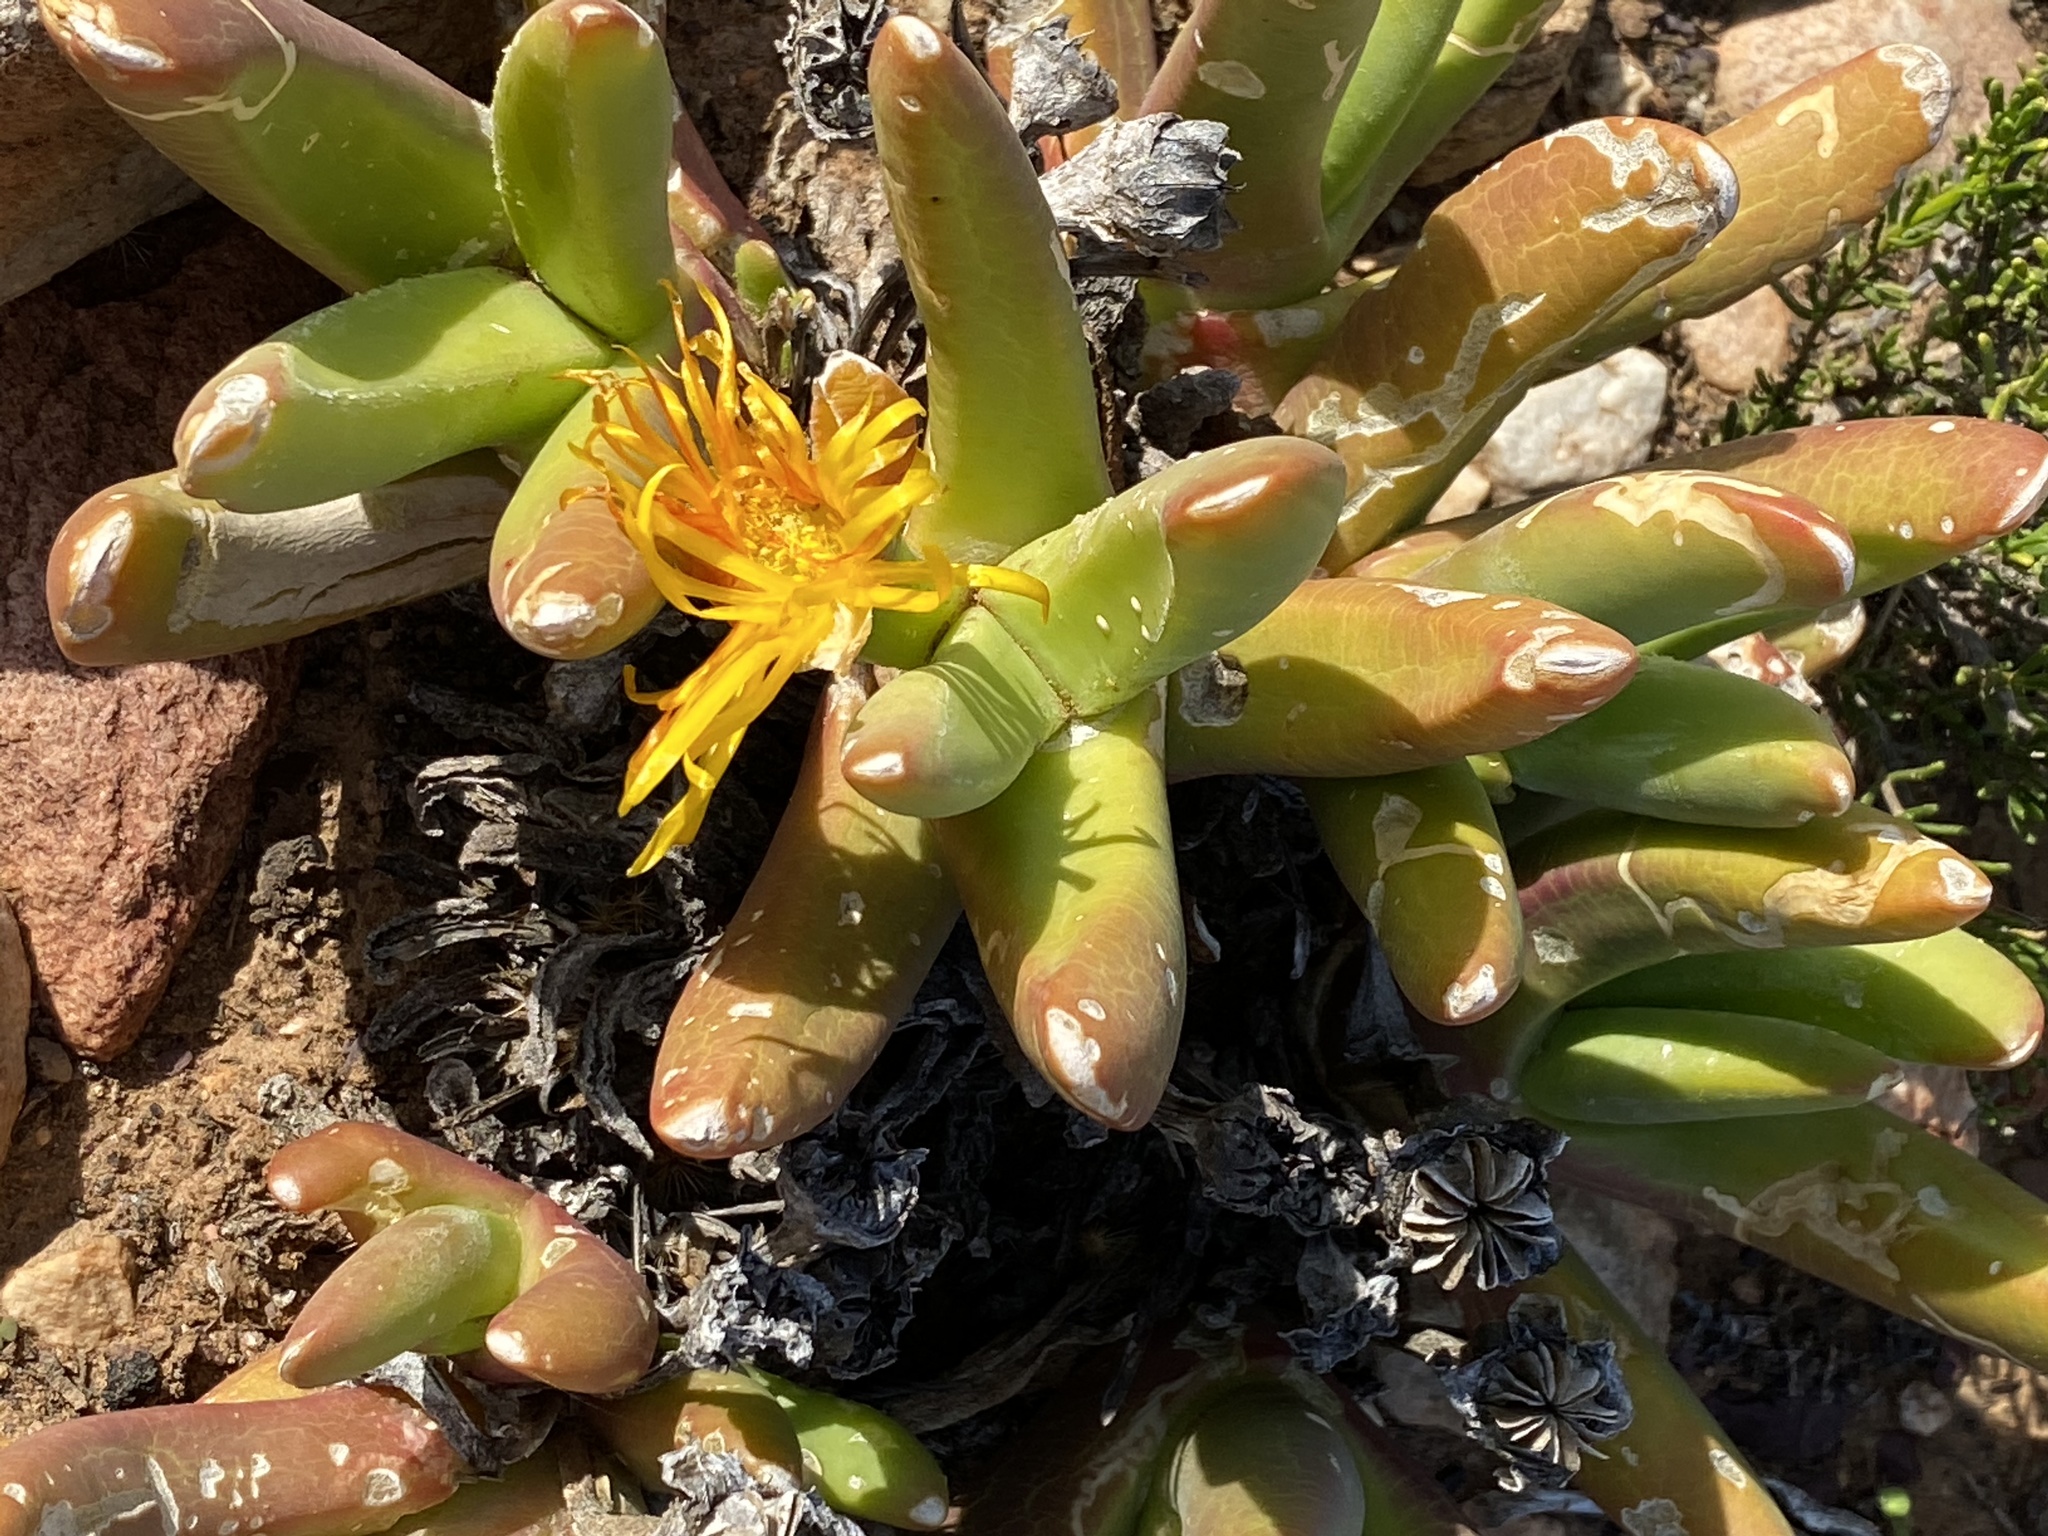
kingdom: Plantae
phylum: Tracheophyta
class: Magnoliopsida
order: Caryophyllales
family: Aizoaceae
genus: Glottiphyllum
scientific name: Glottiphyllum regium
